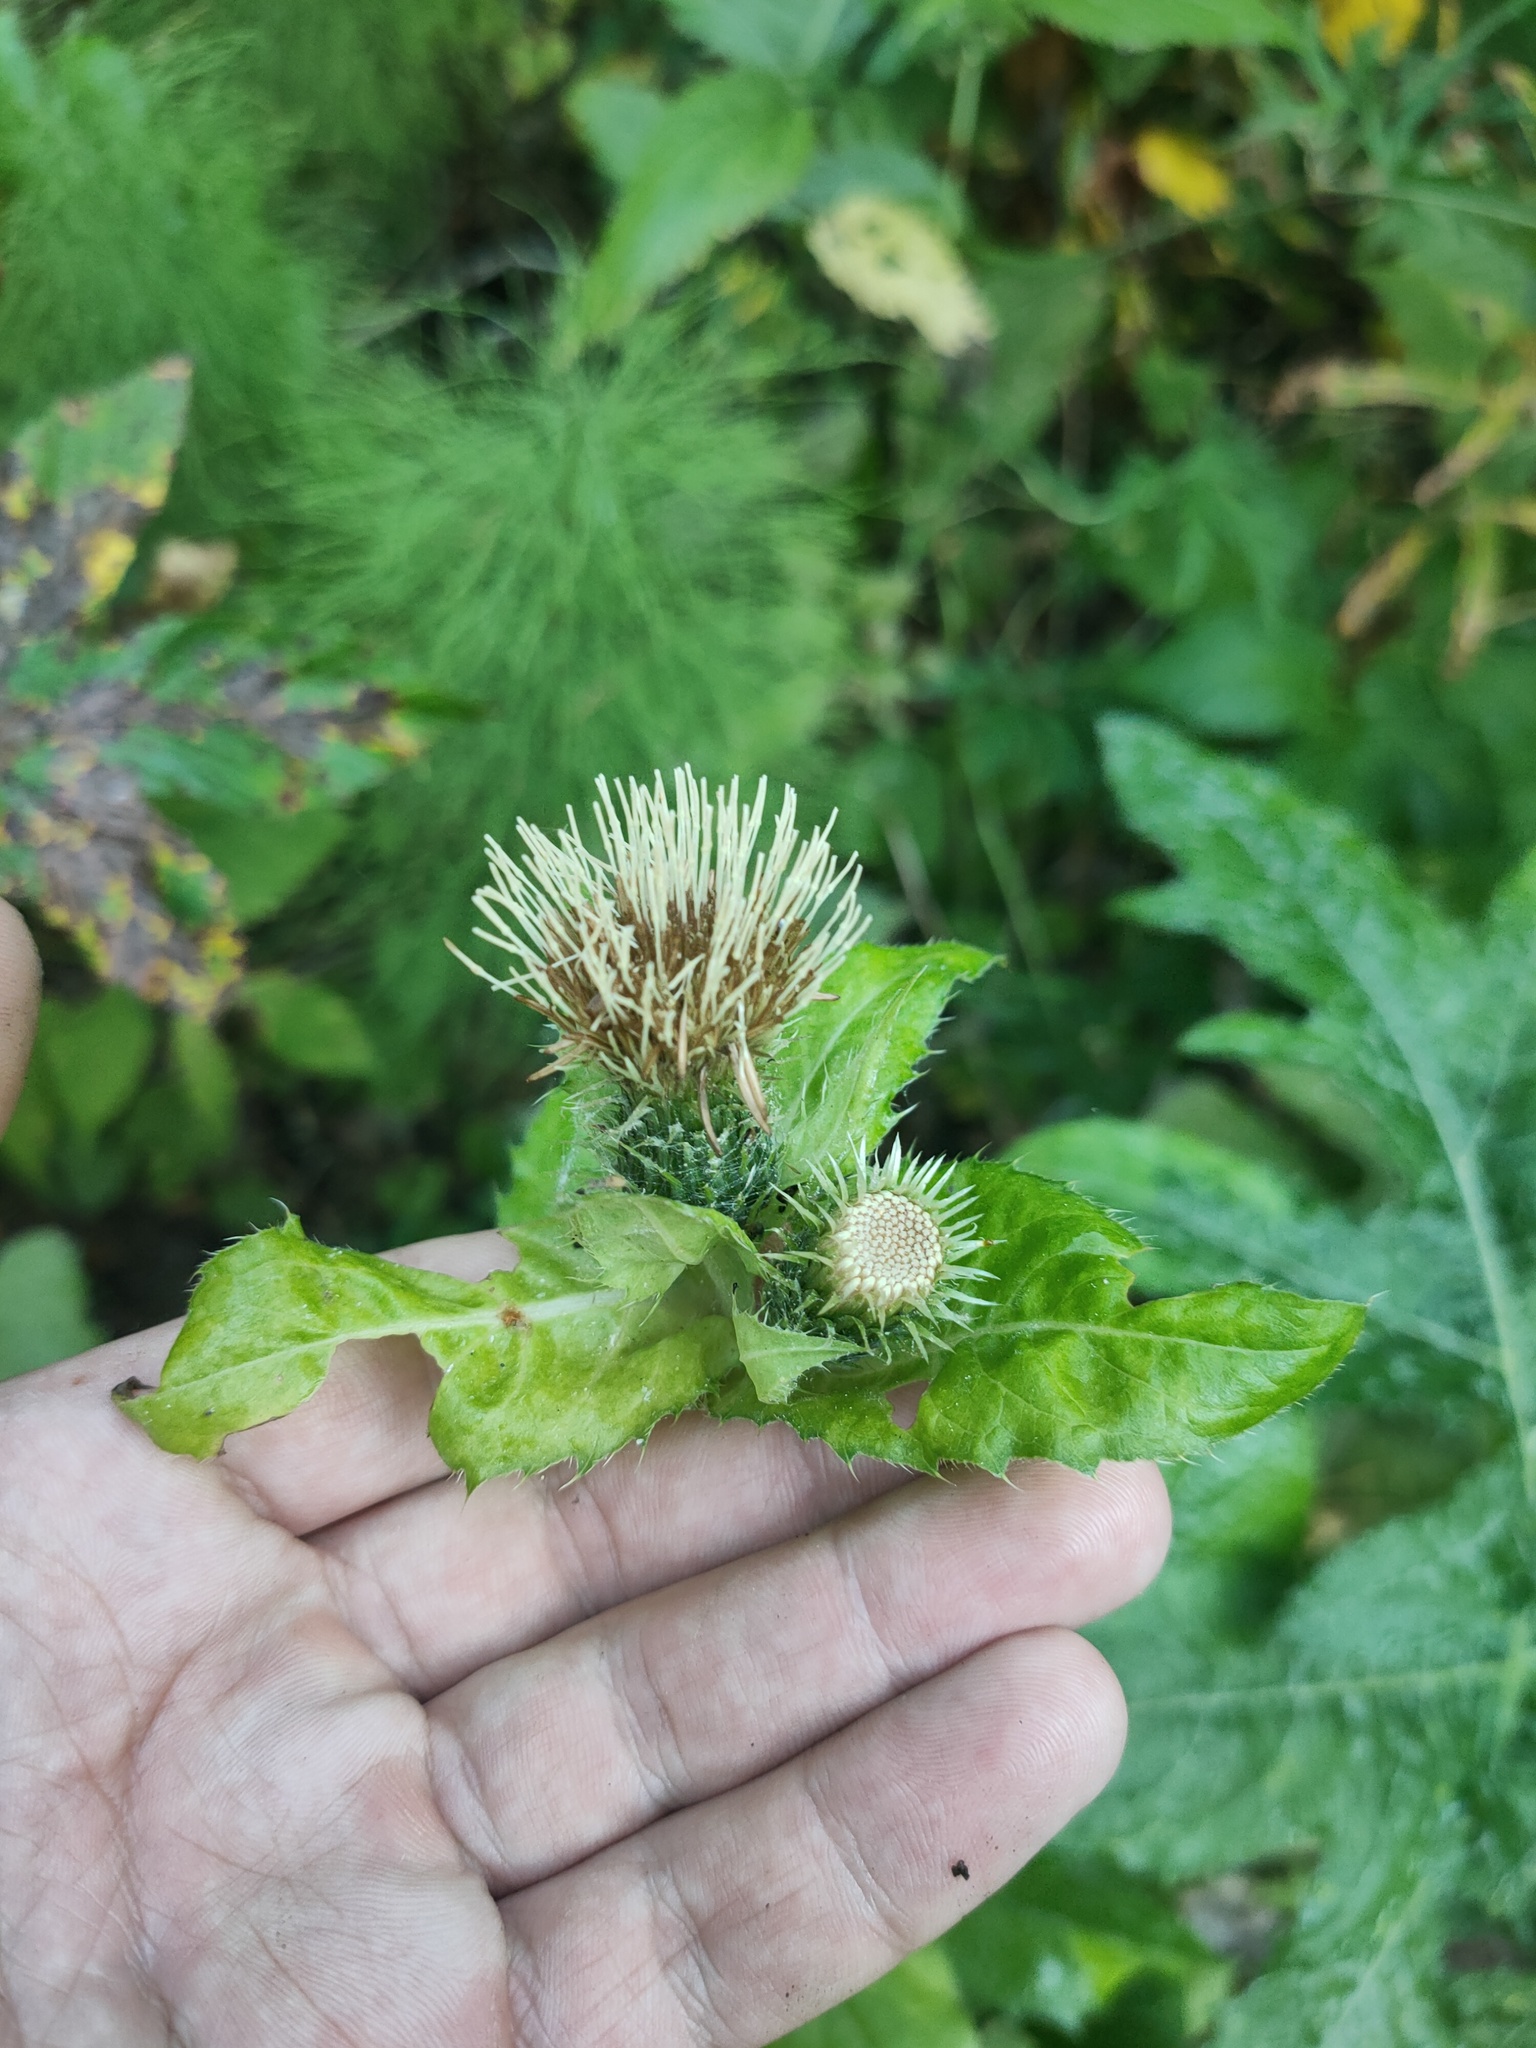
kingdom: Plantae
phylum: Tracheophyta
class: Magnoliopsida
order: Asterales
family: Asteraceae
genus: Cirsium
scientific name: Cirsium oleraceum
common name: Cabbage thistle
